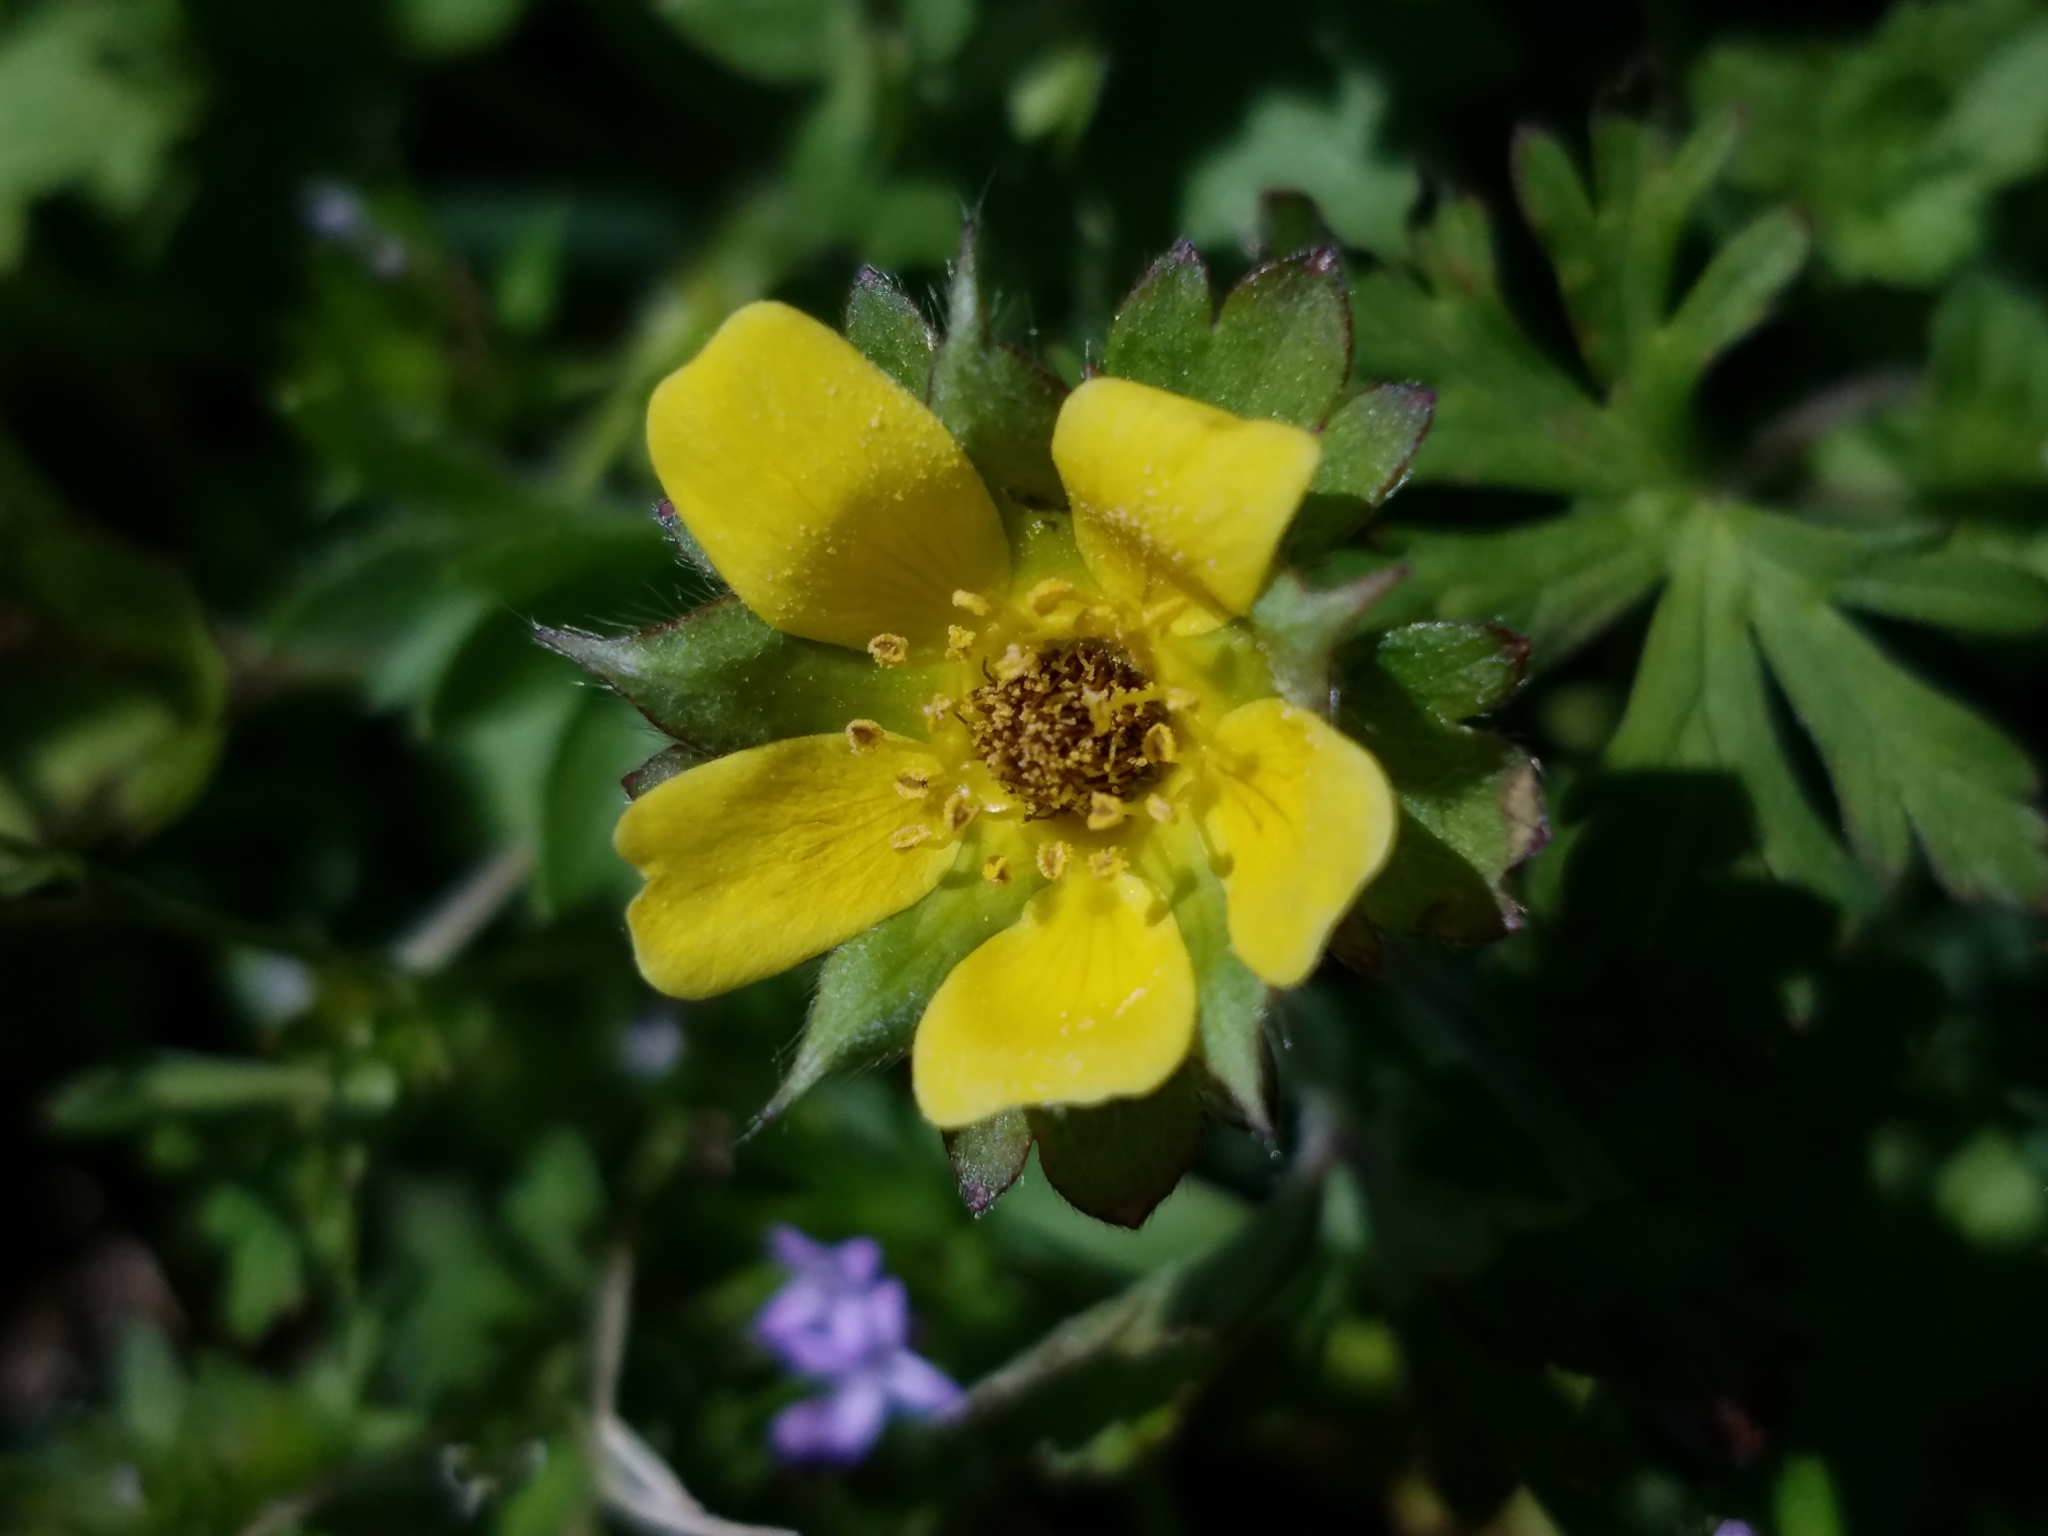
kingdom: Plantae
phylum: Tracheophyta
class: Magnoliopsida
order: Rosales
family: Rosaceae
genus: Potentilla
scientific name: Potentilla indica
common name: Yellow-flowered strawberry
